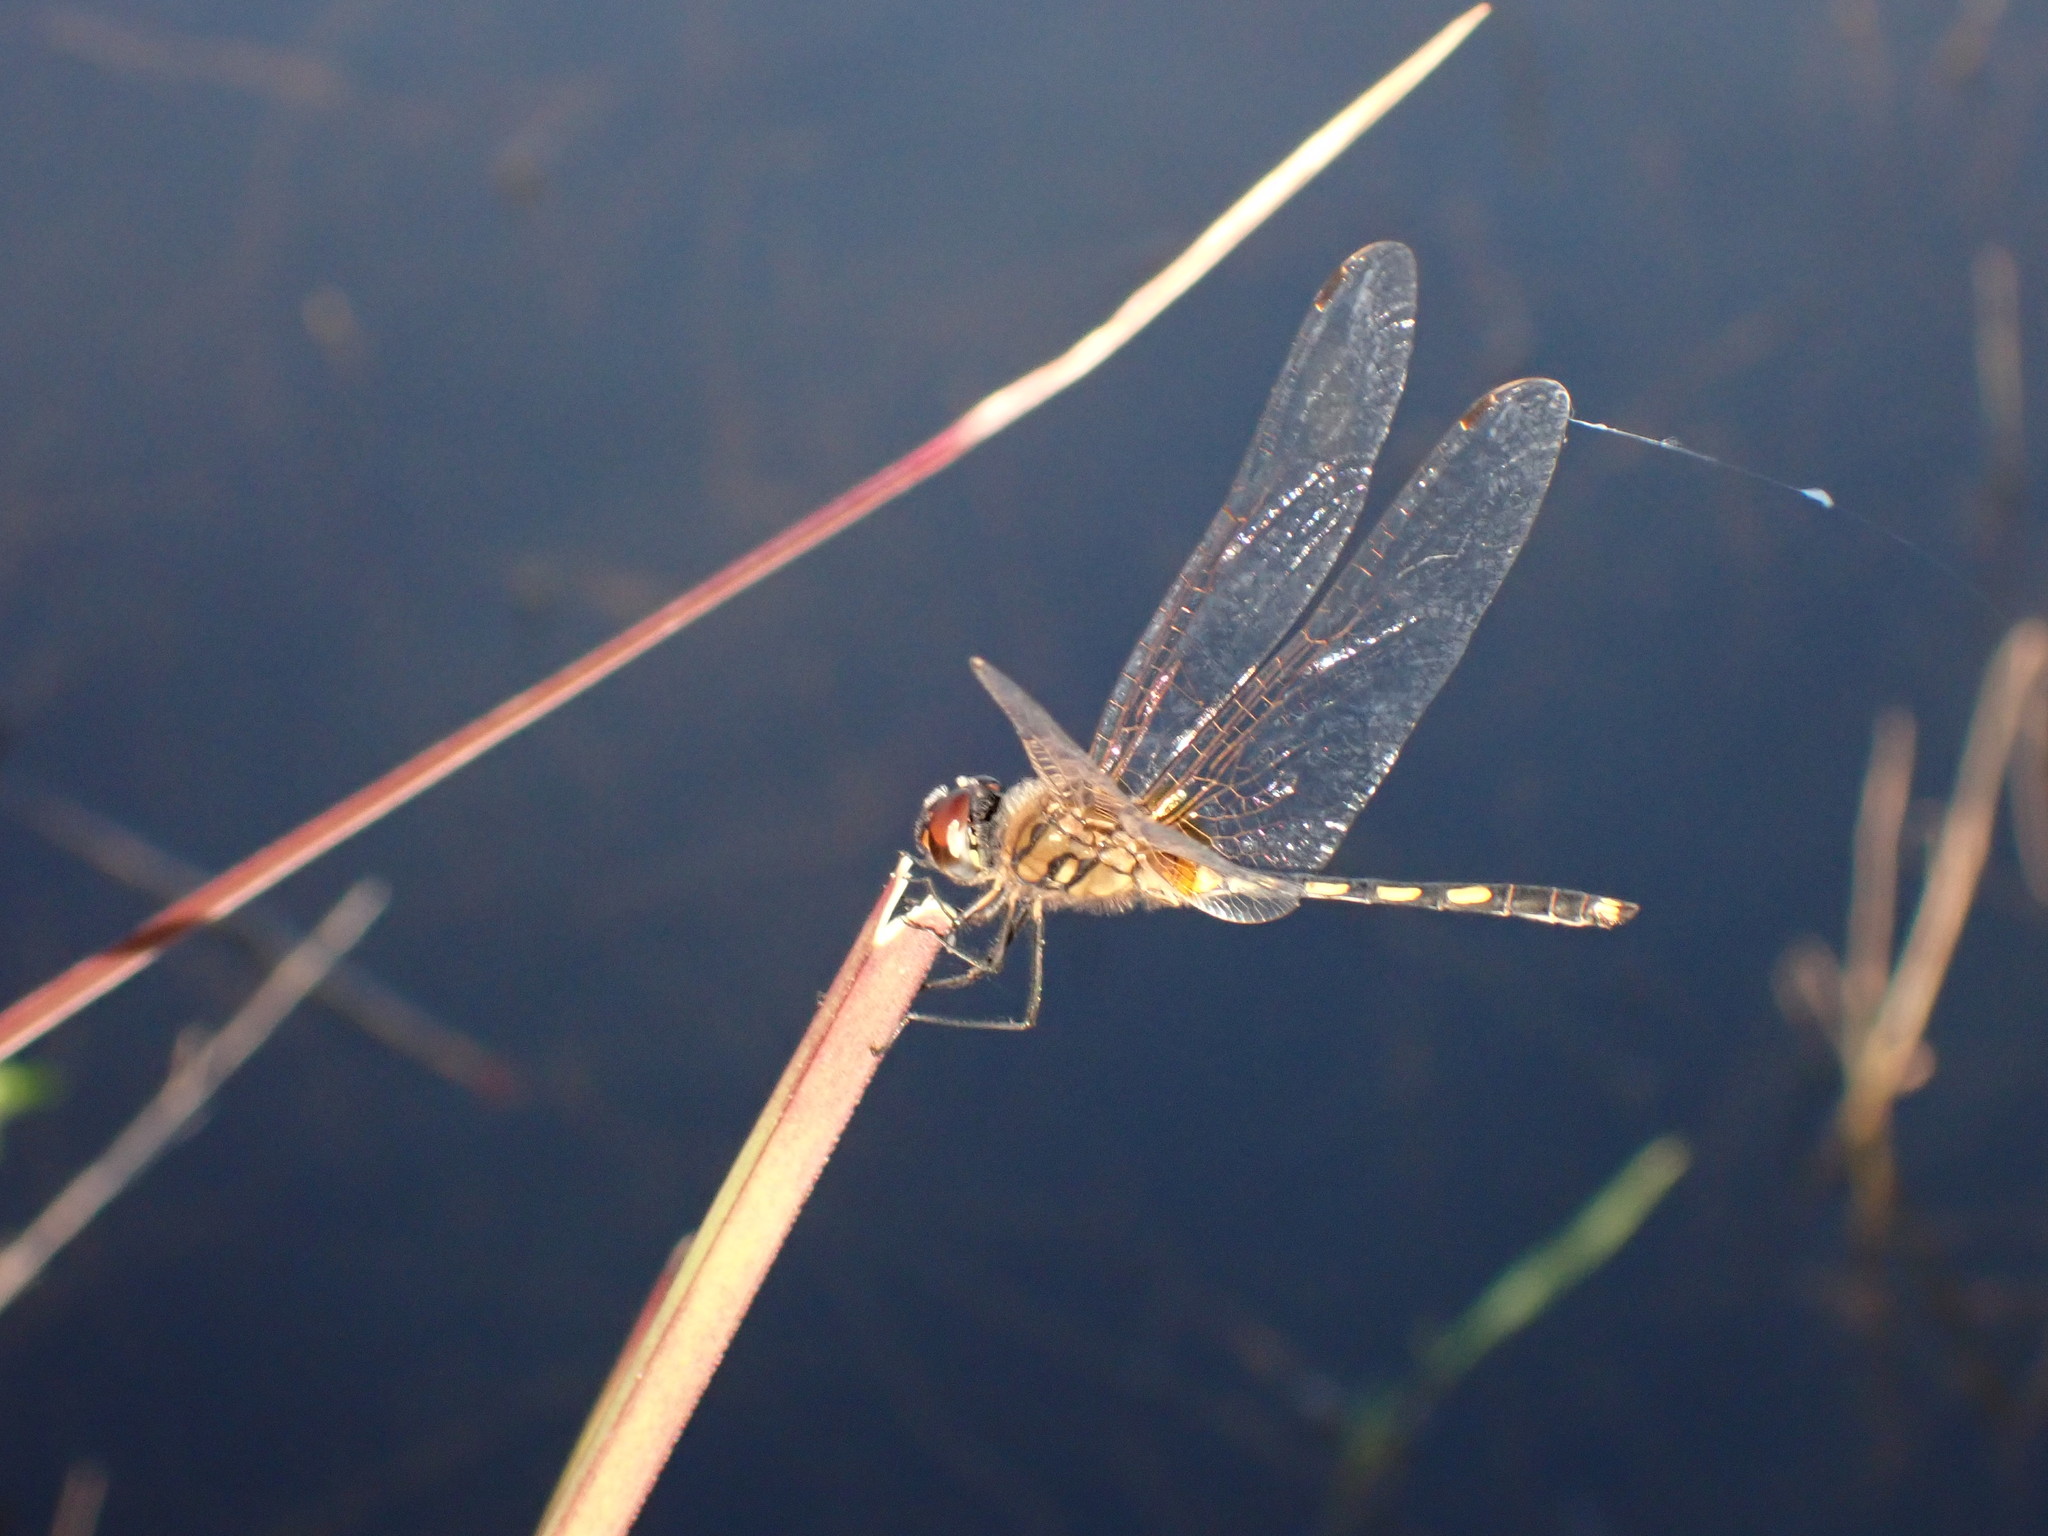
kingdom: Animalia
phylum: Arthropoda
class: Insecta
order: Odonata
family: Libellulidae
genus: Trithemis
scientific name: Trithemis pallidinervis
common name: Dancing dropwing
